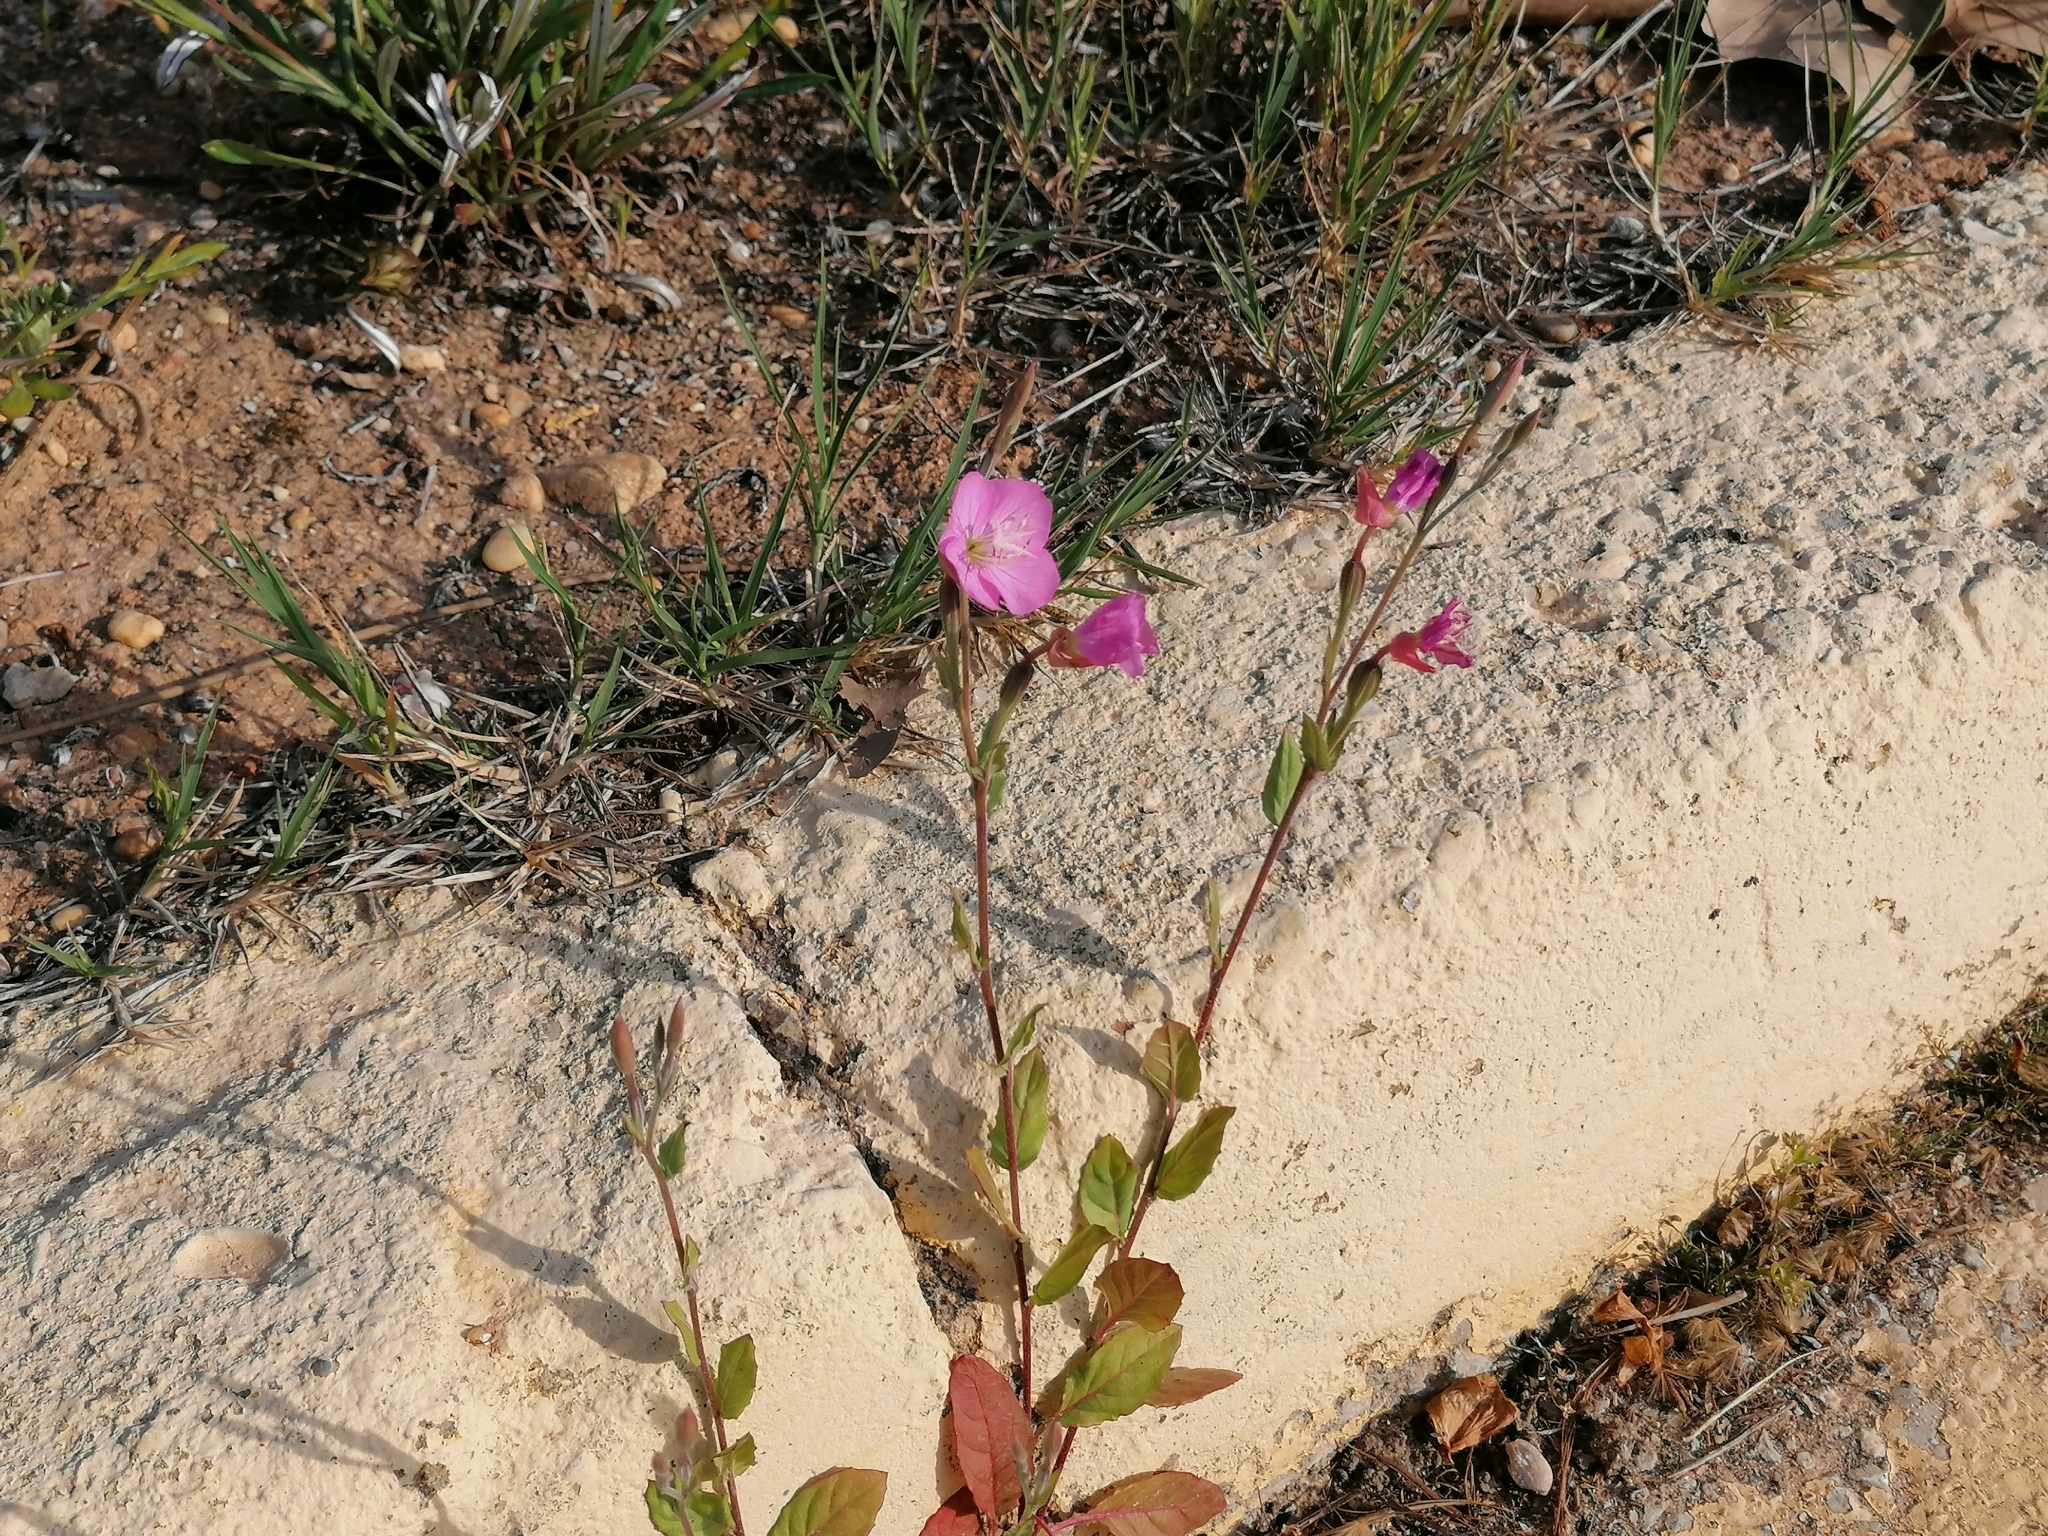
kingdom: Plantae
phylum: Tracheophyta
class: Magnoliopsida
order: Myrtales
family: Onagraceae
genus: Oenothera
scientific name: Oenothera rosea
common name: Rosy evening-primrose
